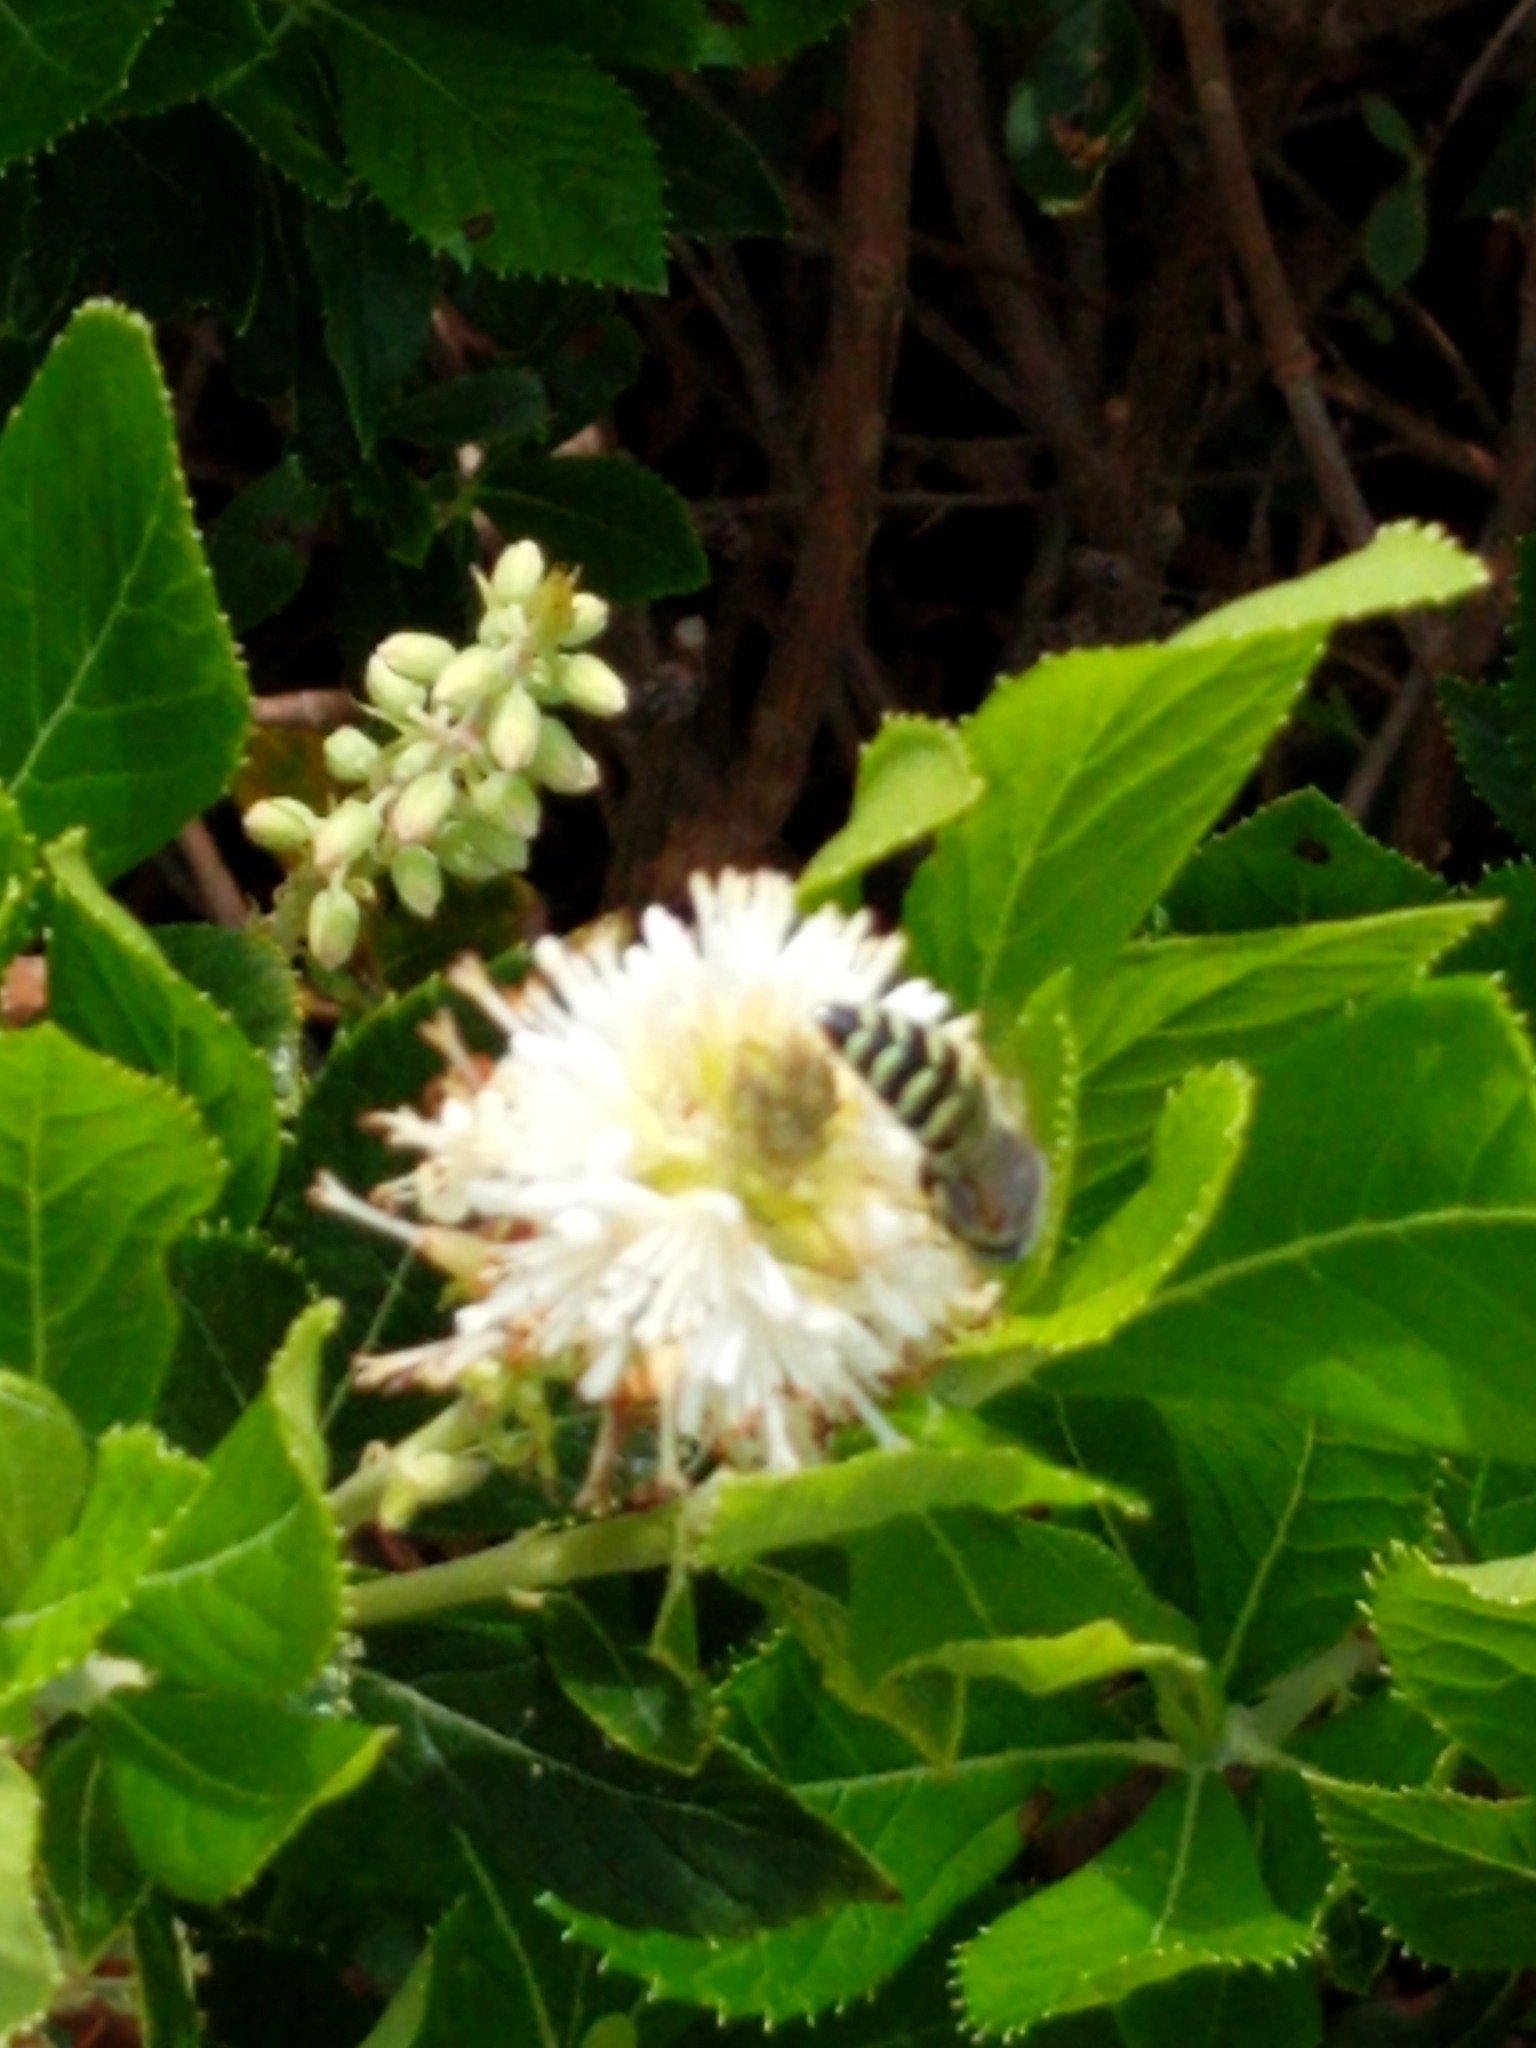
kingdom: Animalia
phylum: Arthropoda
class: Insecta
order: Hymenoptera
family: Crabronidae
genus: Bembix
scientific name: Bembix americana
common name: American sand wasp
